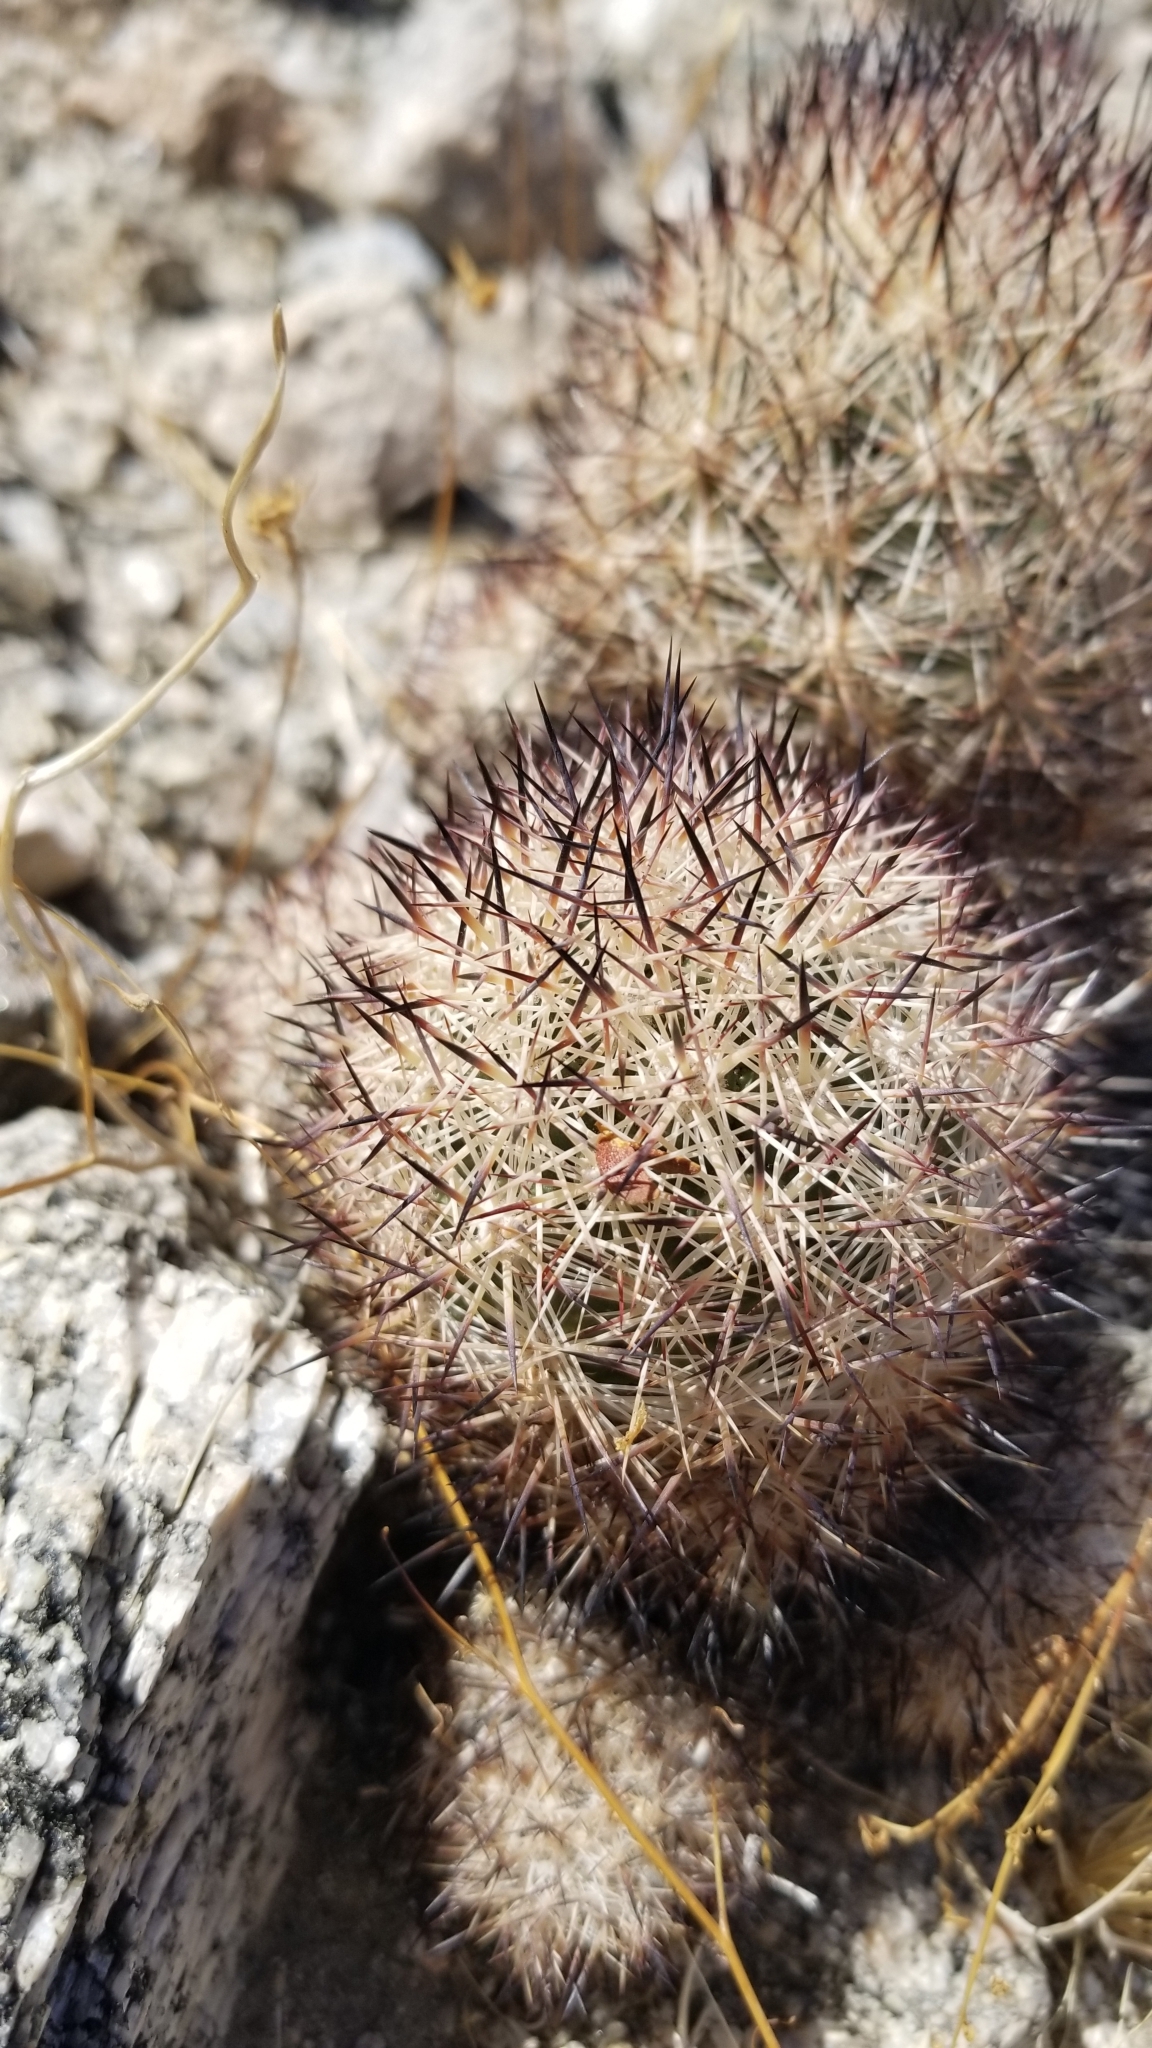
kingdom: Plantae
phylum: Tracheophyta
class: Magnoliopsida
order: Caryophyllales
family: Cactaceae
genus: Pelecyphora
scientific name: Pelecyphora alversonii
